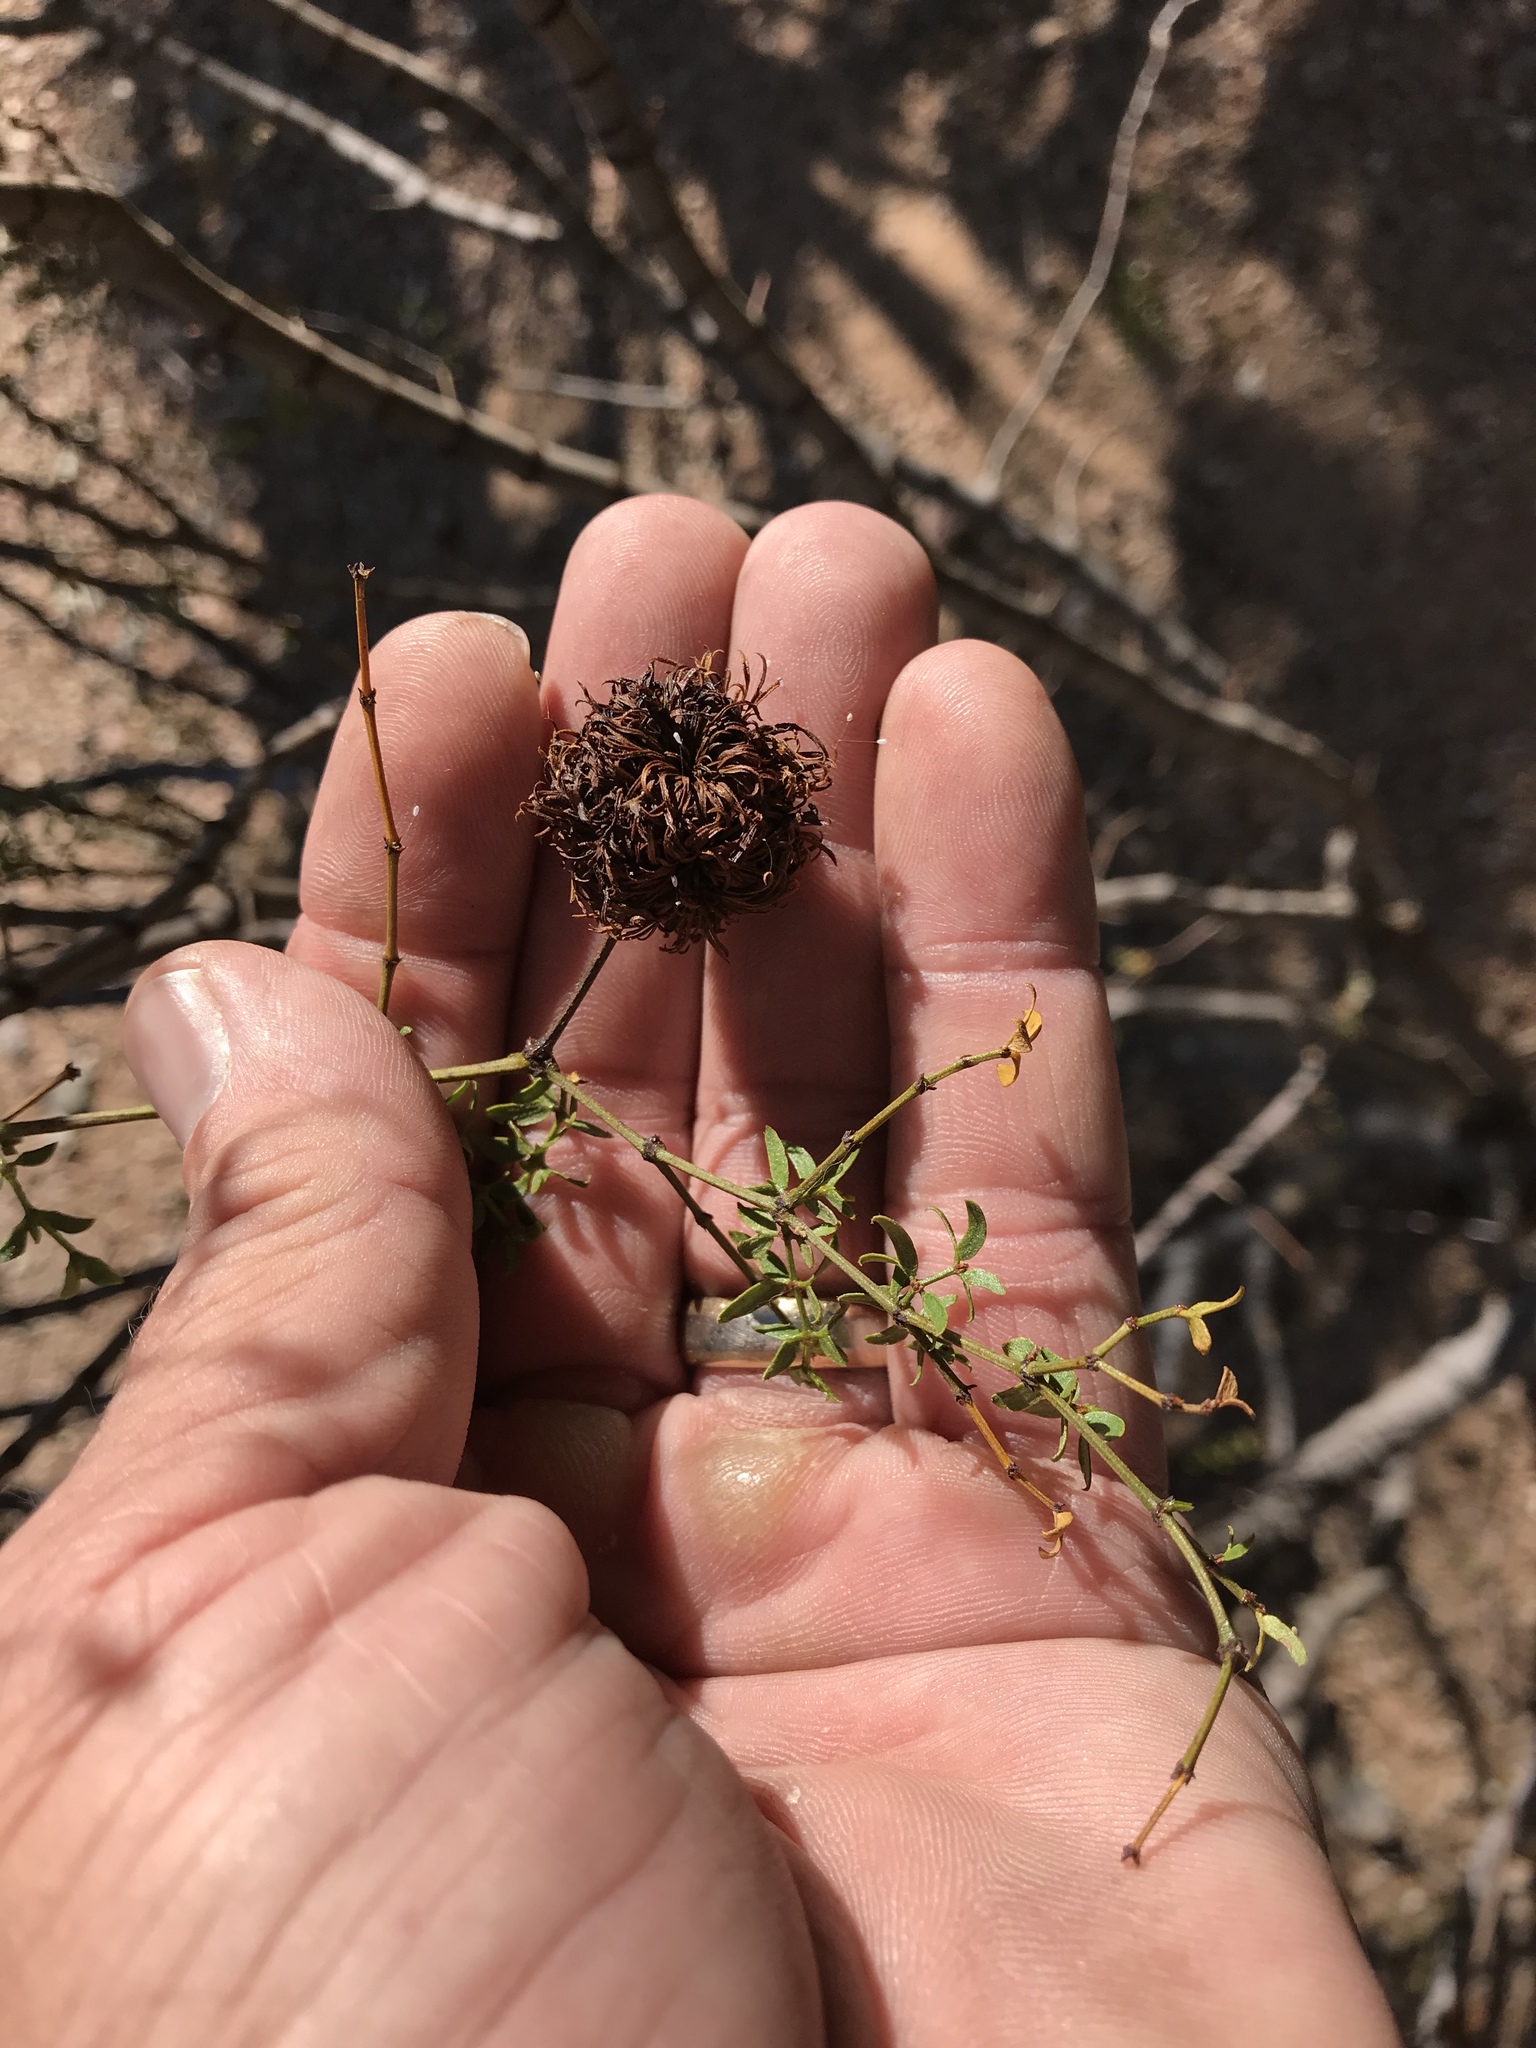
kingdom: Animalia
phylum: Arthropoda
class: Insecta
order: Diptera
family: Cecidomyiidae
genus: Asphondylia
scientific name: Asphondylia auripila
